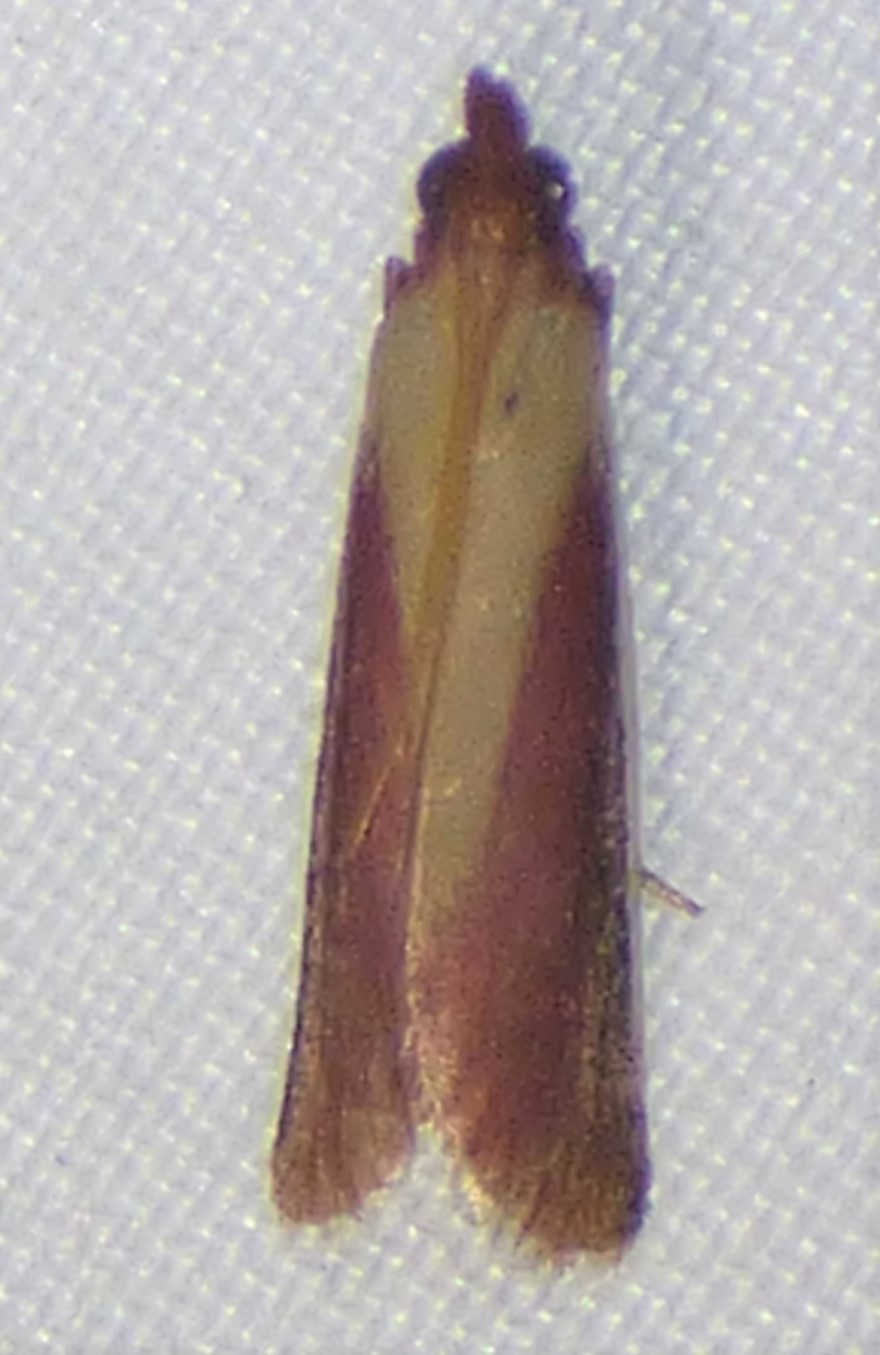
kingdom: Animalia
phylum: Arthropoda
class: Insecta
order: Lepidoptera
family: Pyralidae
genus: Peoria
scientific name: Peoria approximella
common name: Carmine snout
